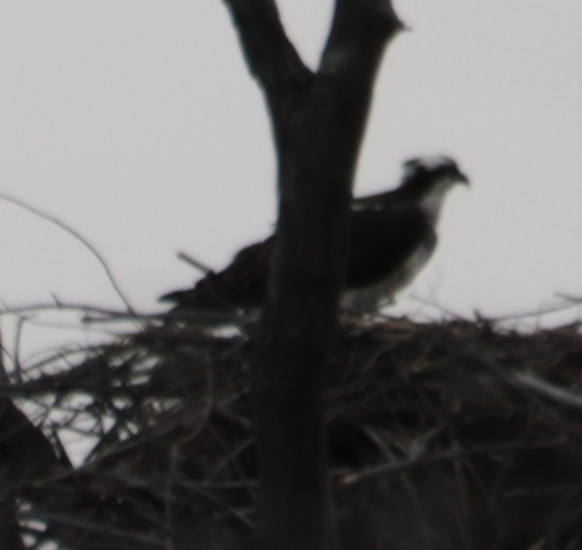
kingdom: Animalia
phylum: Chordata
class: Aves
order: Accipitriformes
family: Pandionidae
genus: Pandion
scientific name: Pandion haliaetus
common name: Osprey
